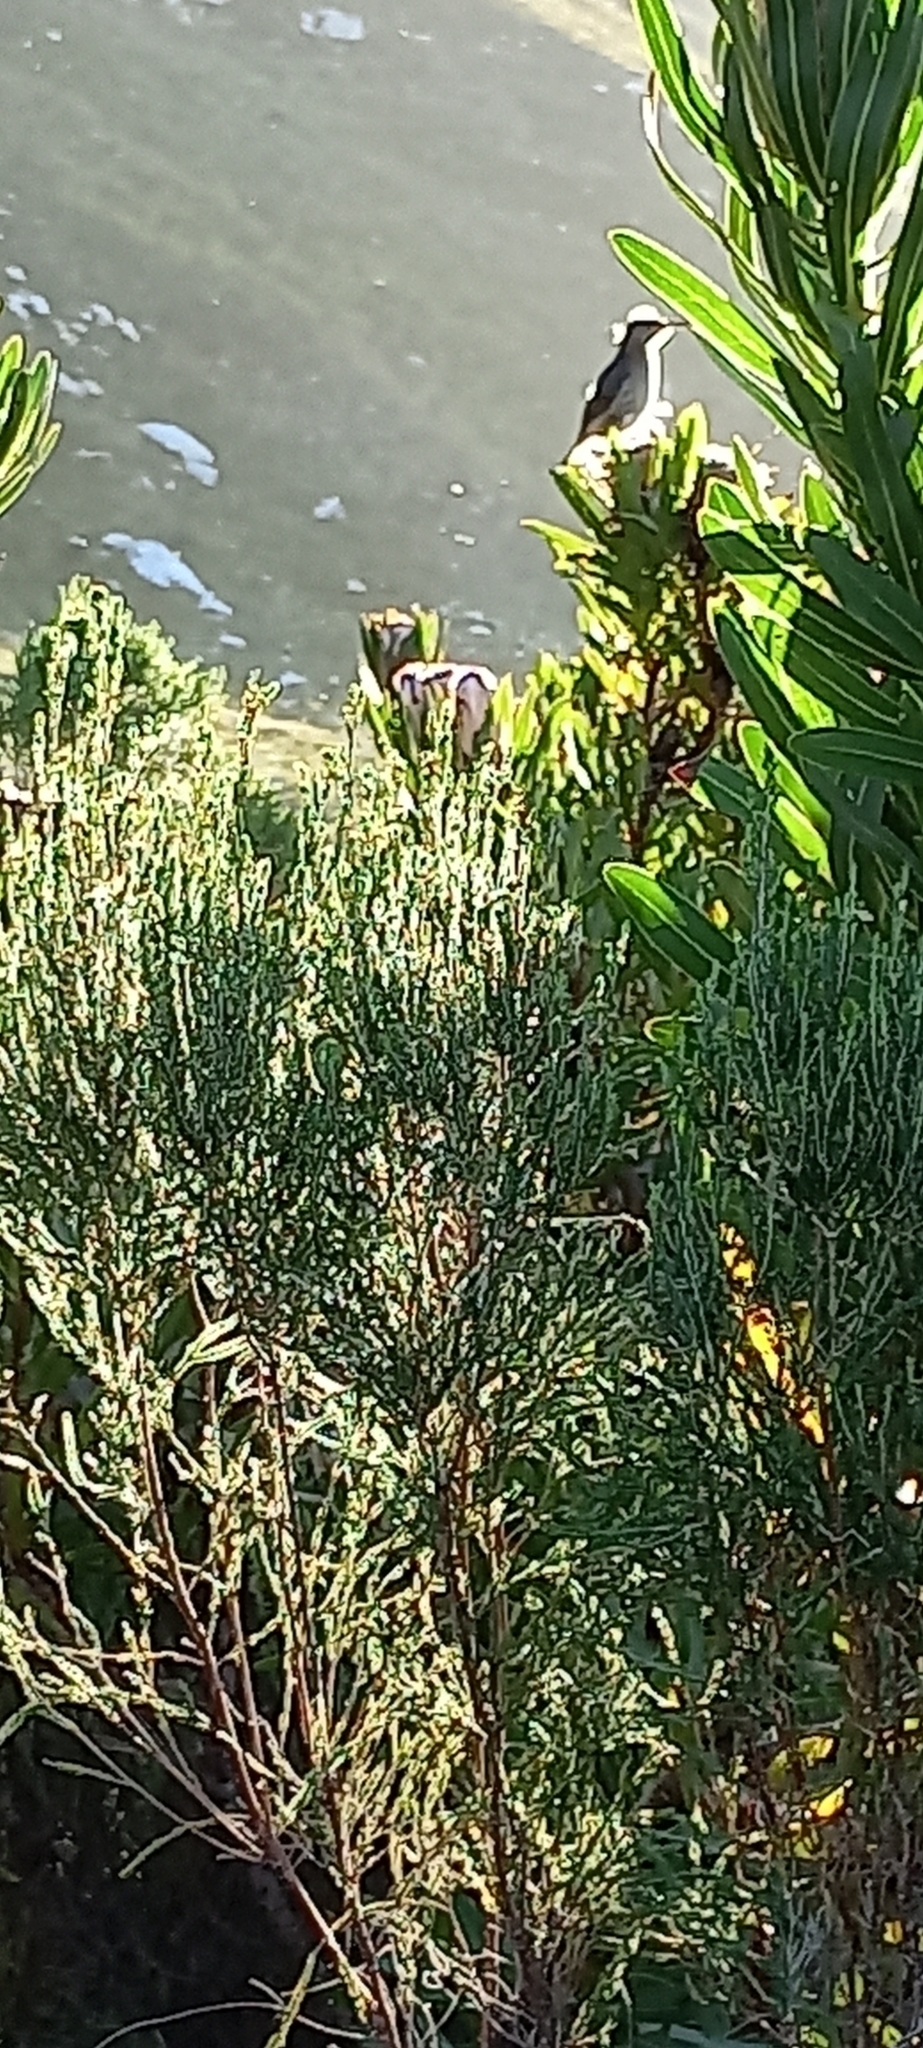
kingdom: Animalia
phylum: Chordata
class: Aves
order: Passeriformes
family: Promeropidae
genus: Promerops
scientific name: Promerops cafer
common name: Cape sugarbird
